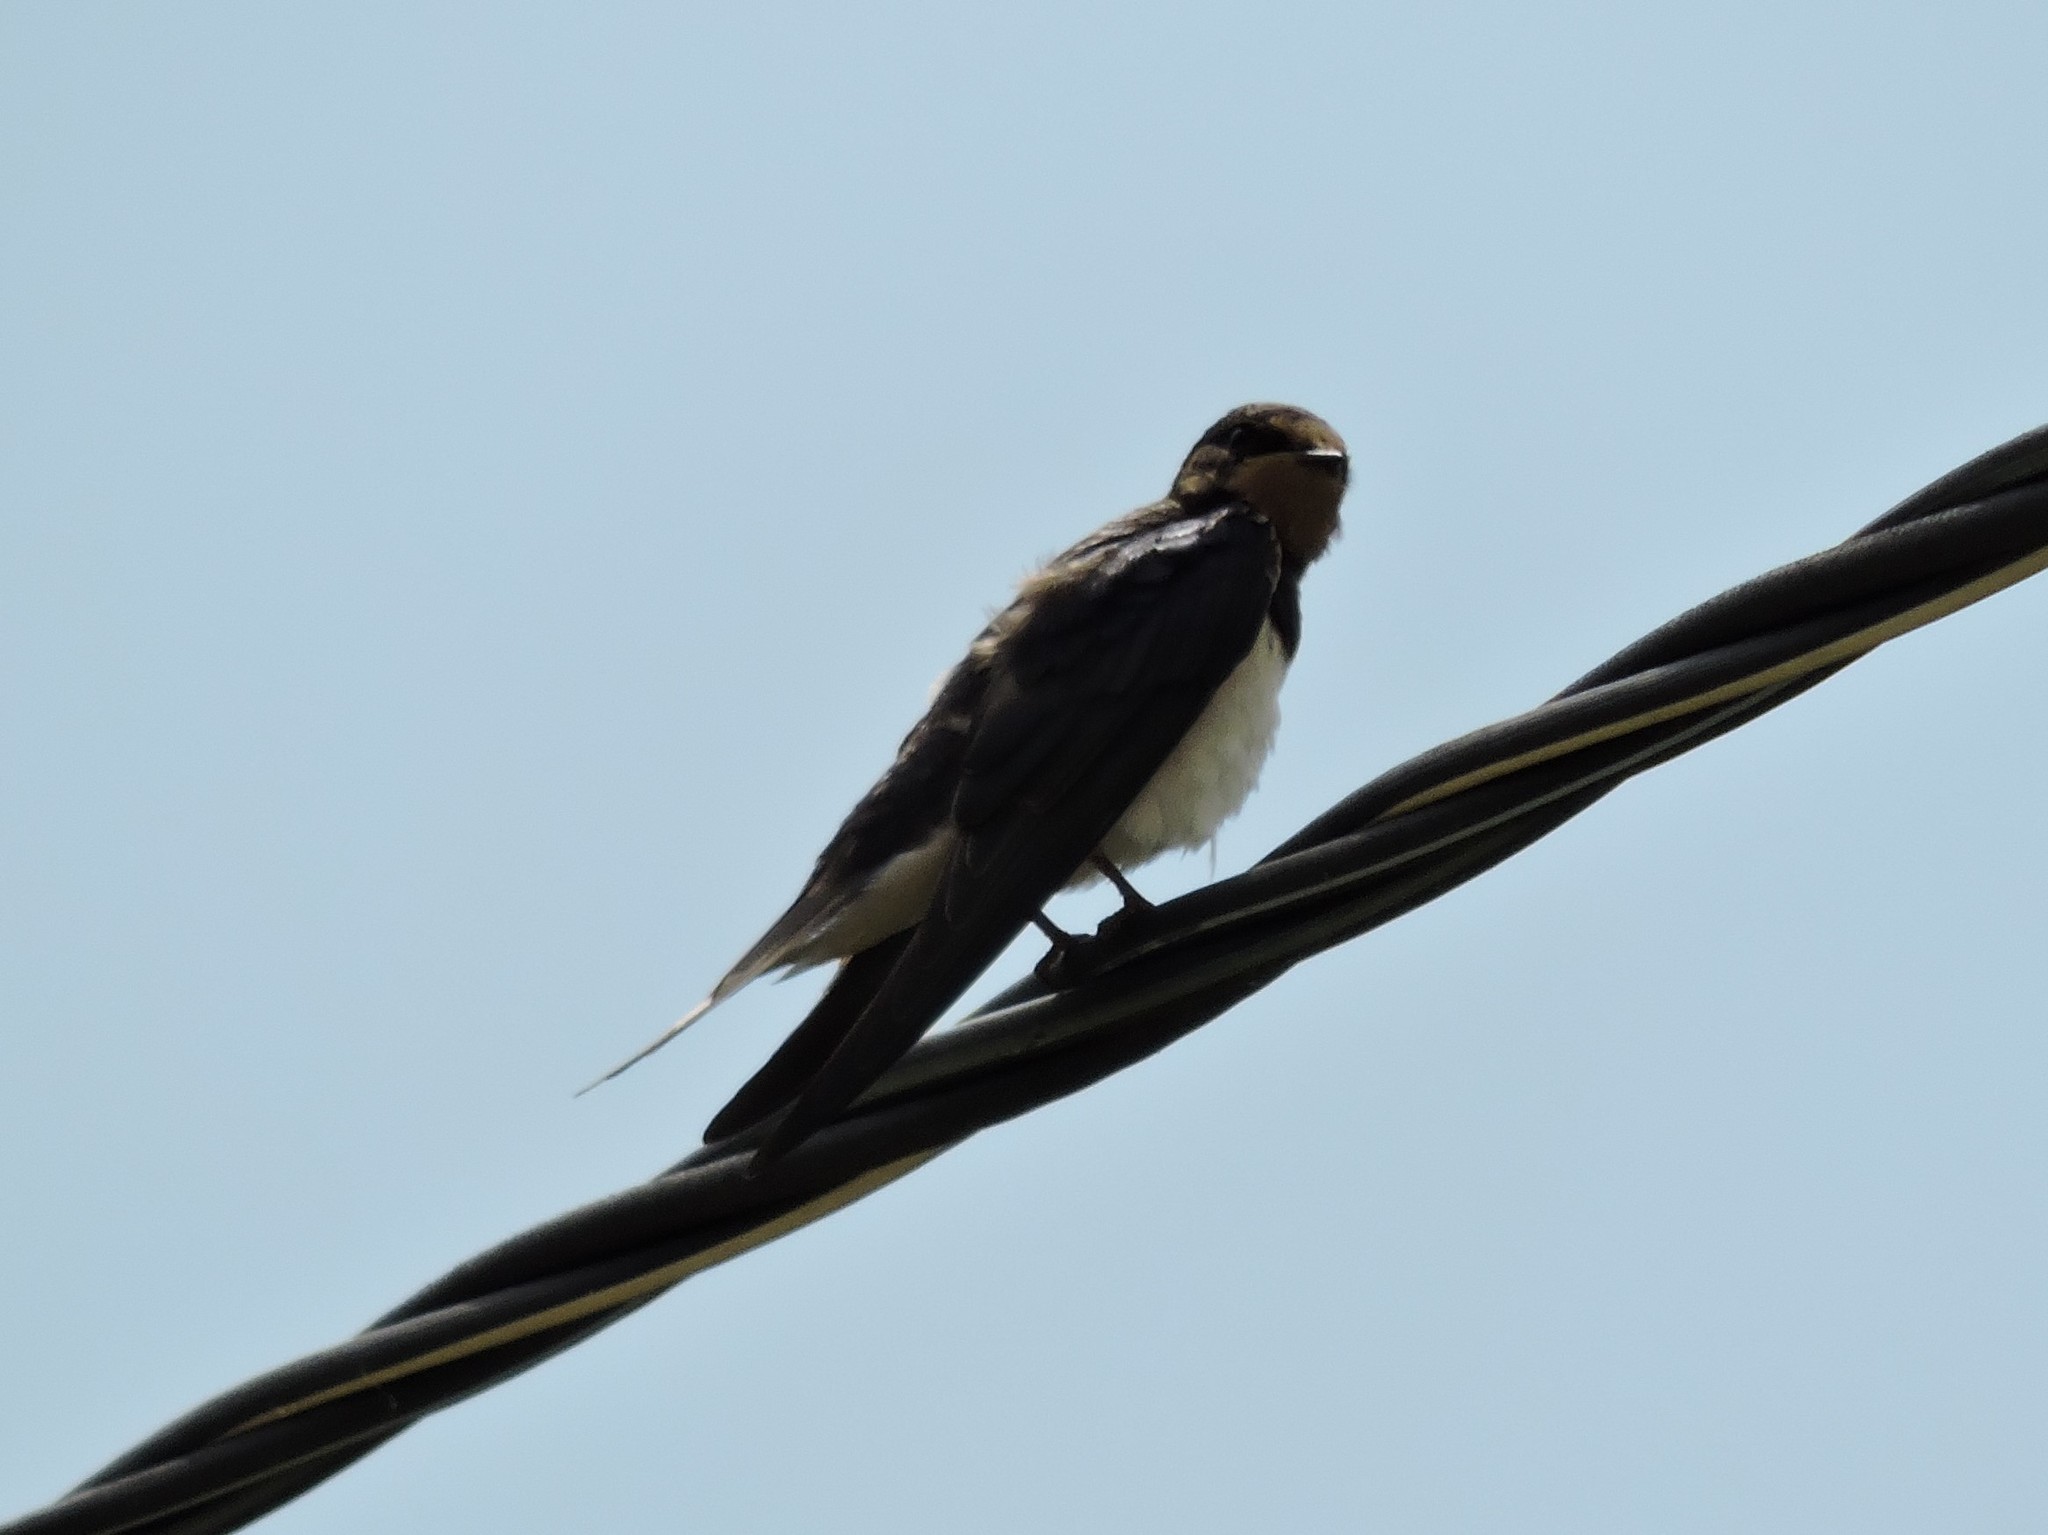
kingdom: Animalia
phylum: Chordata
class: Aves
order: Passeriformes
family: Hirundinidae
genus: Hirundo
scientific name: Hirundo rustica
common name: Barn swallow
